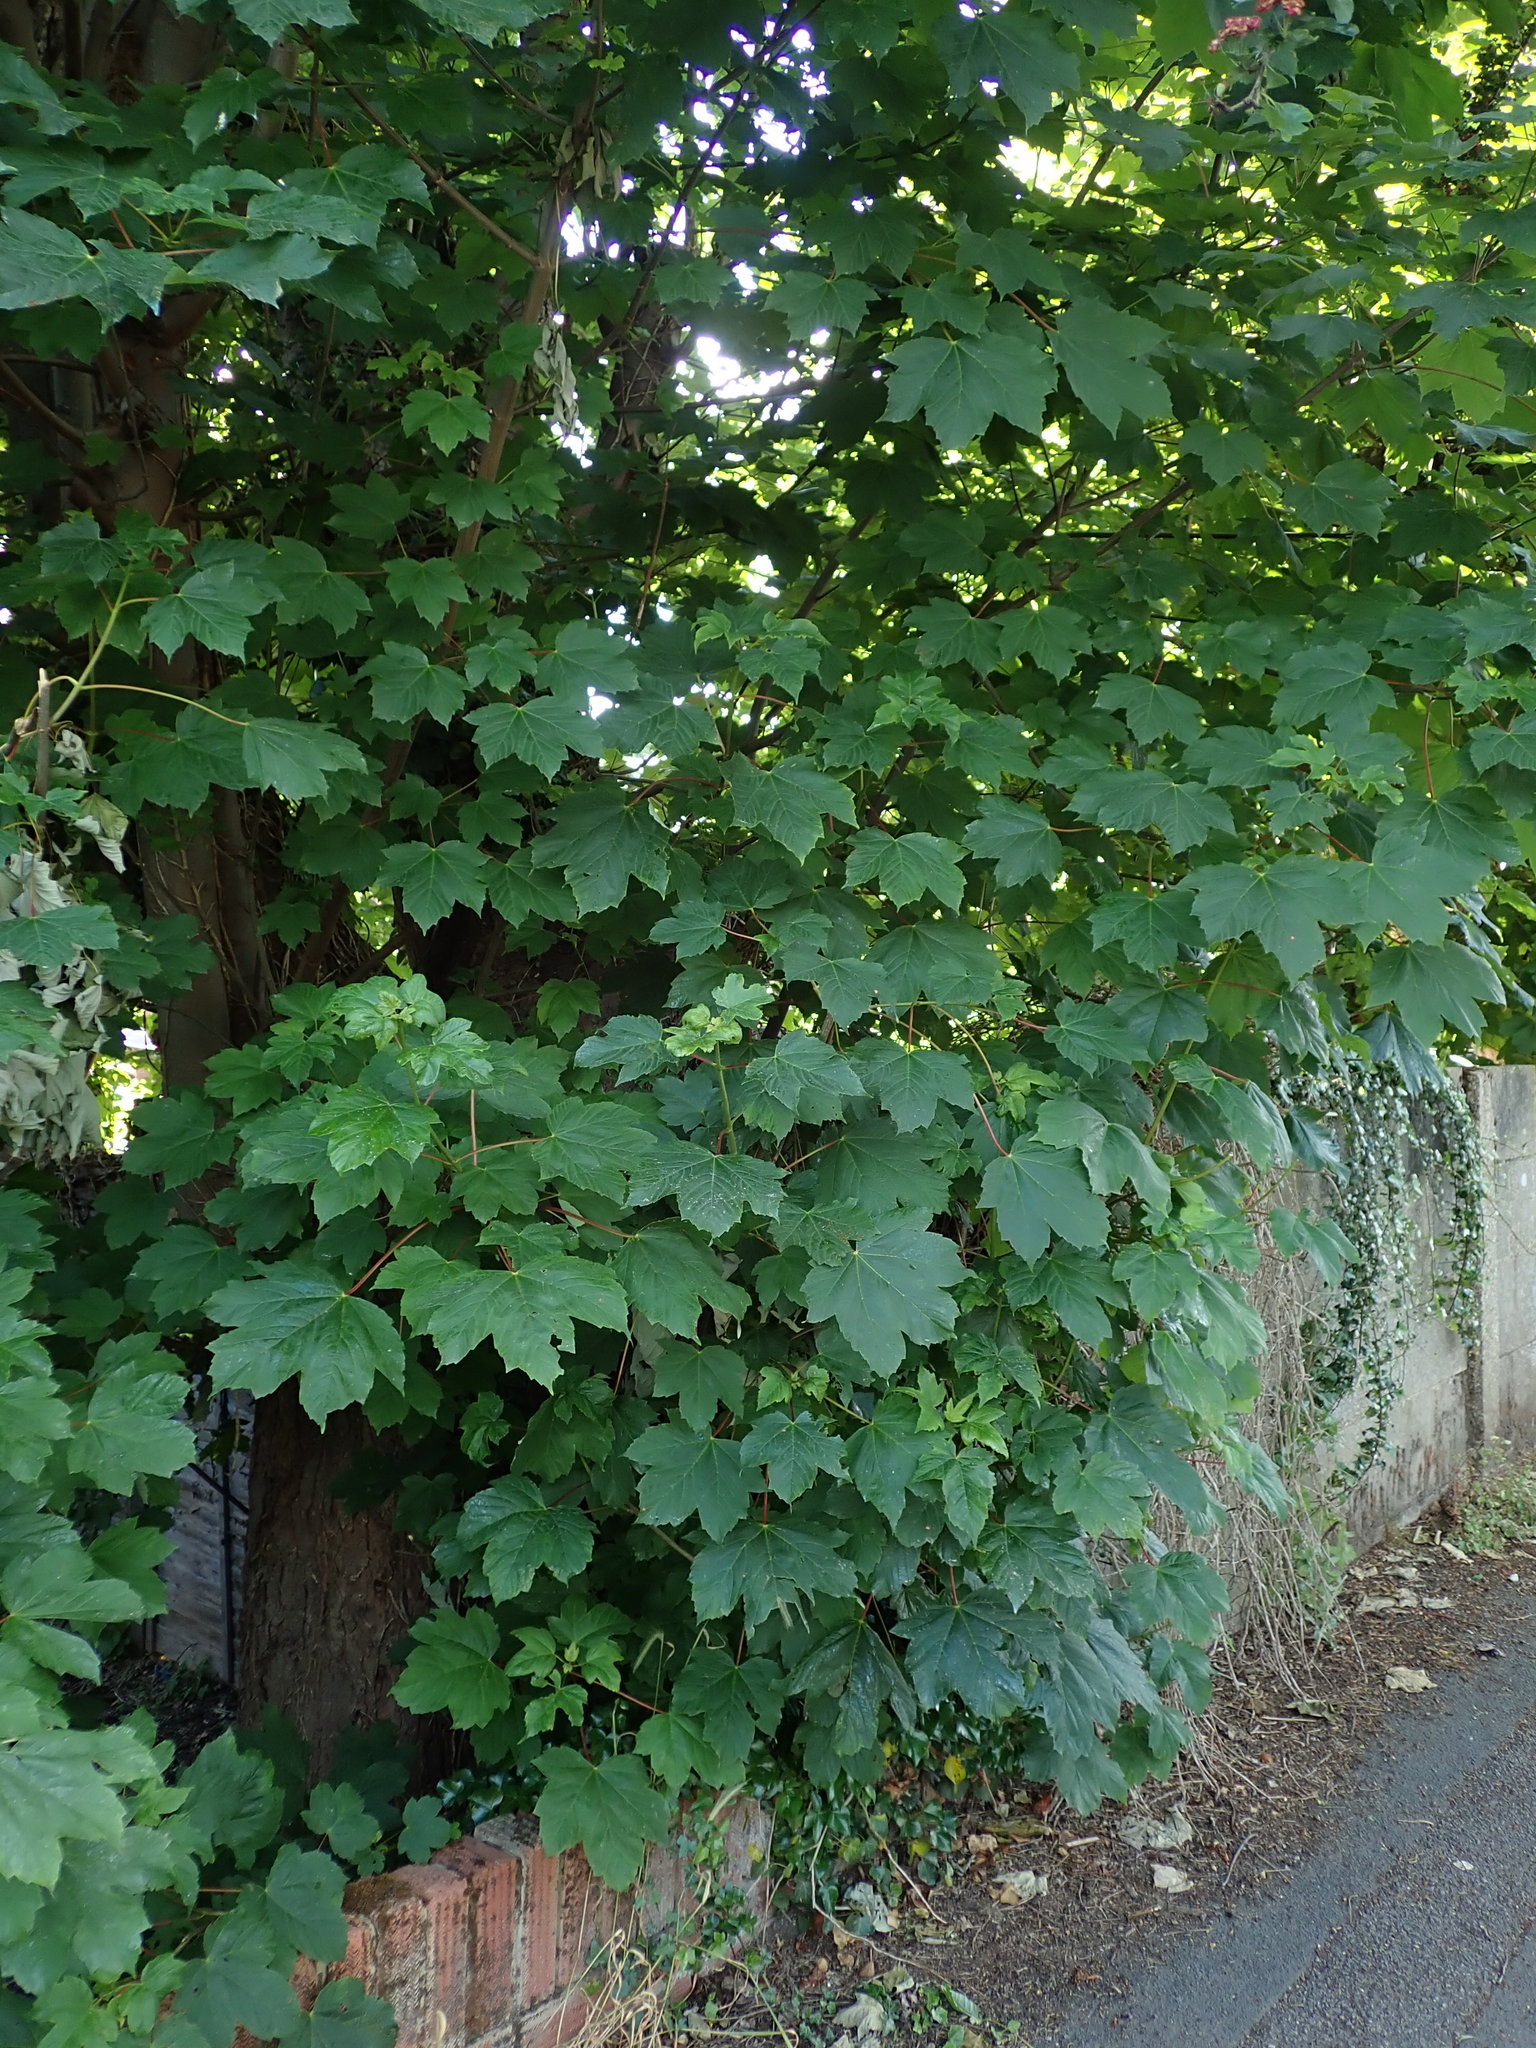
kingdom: Plantae
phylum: Tracheophyta
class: Magnoliopsida
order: Sapindales
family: Sapindaceae
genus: Acer
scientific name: Acer pseudoplatanus
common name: Sycamore
